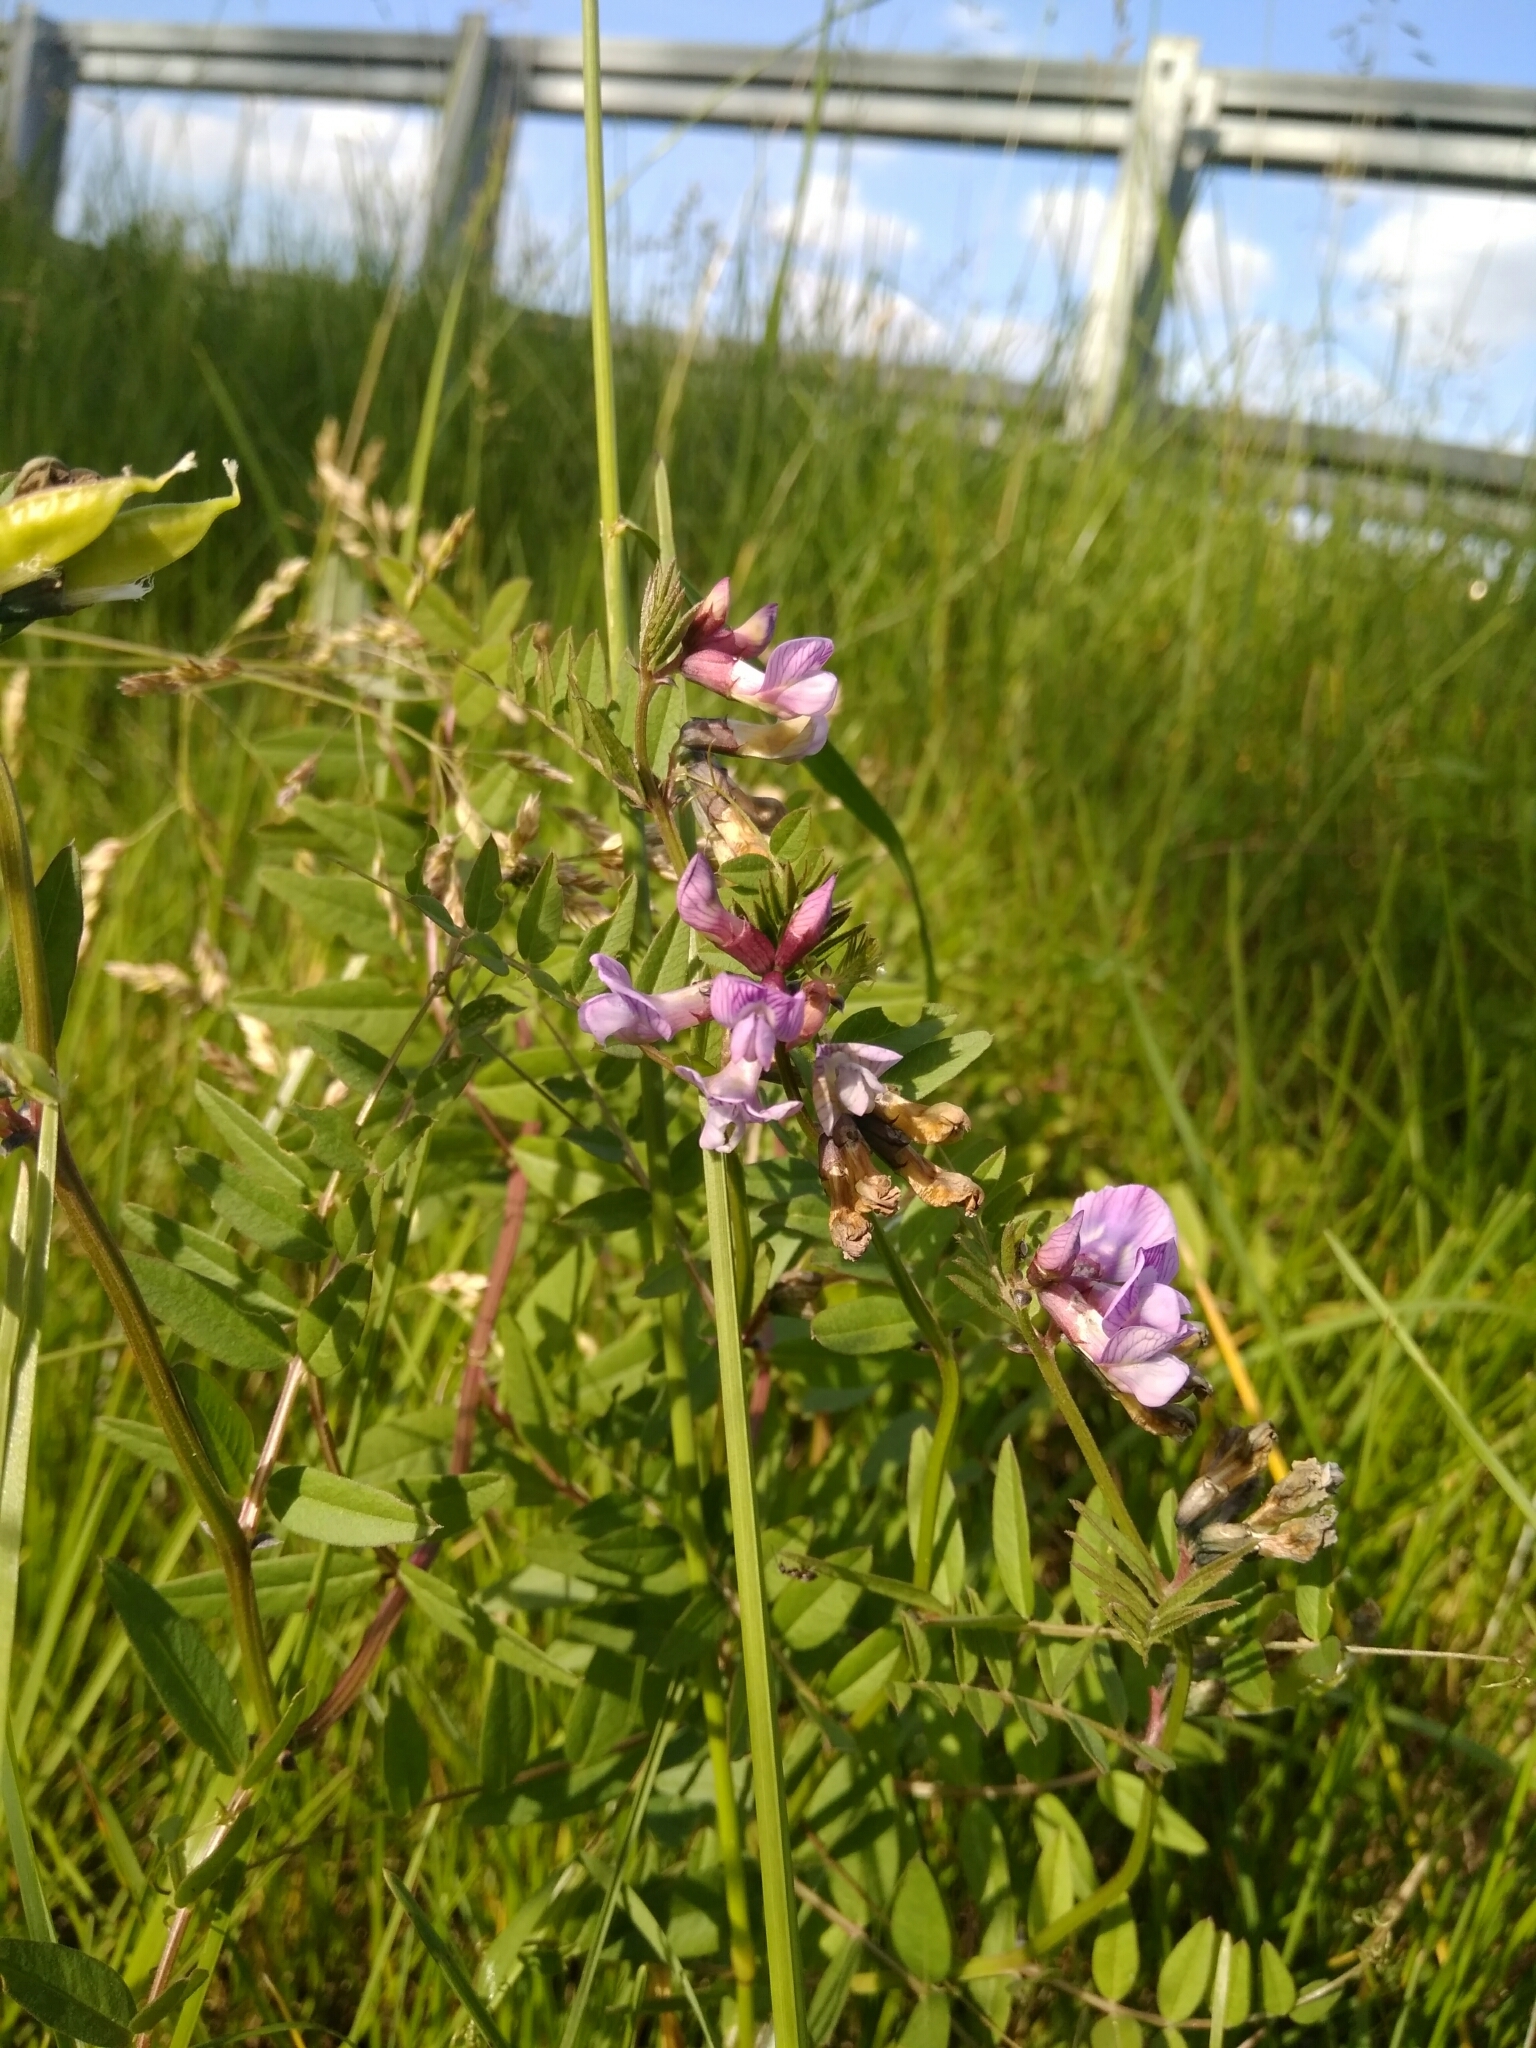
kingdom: Plantae
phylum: Tracheophyta
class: Magnoliopsida
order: Fabales
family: Fabaceae
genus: Vicia
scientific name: Vicia sepium
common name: Bush vetch
